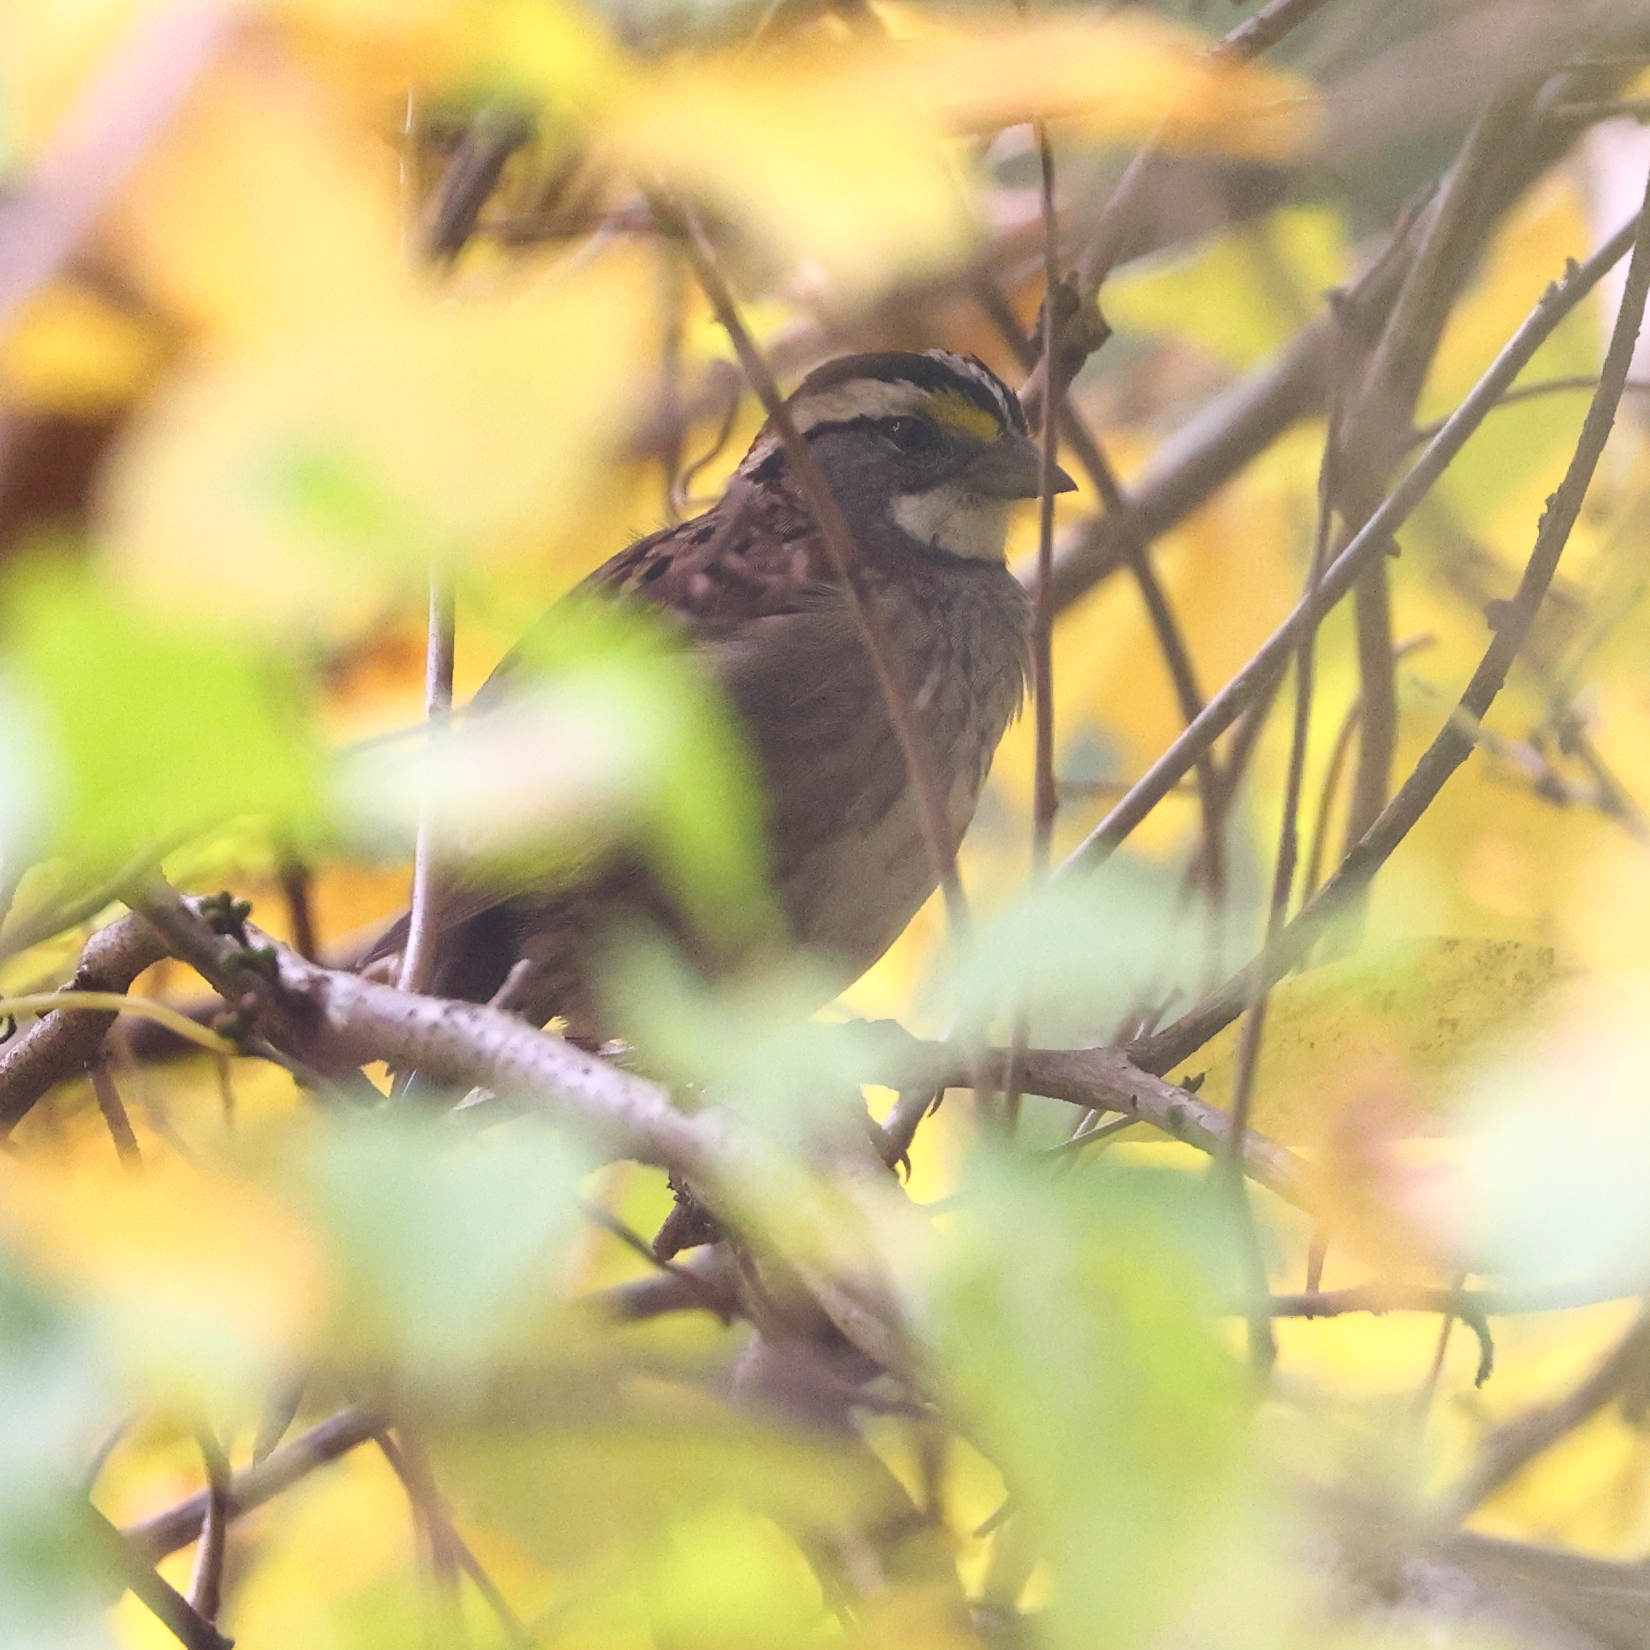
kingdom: Animalia
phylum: Chordata
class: Aves
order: Passeriformes
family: Passerellidae
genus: Zonotrichia
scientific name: Zonotrichia albicollis
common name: White-throated sparrow
